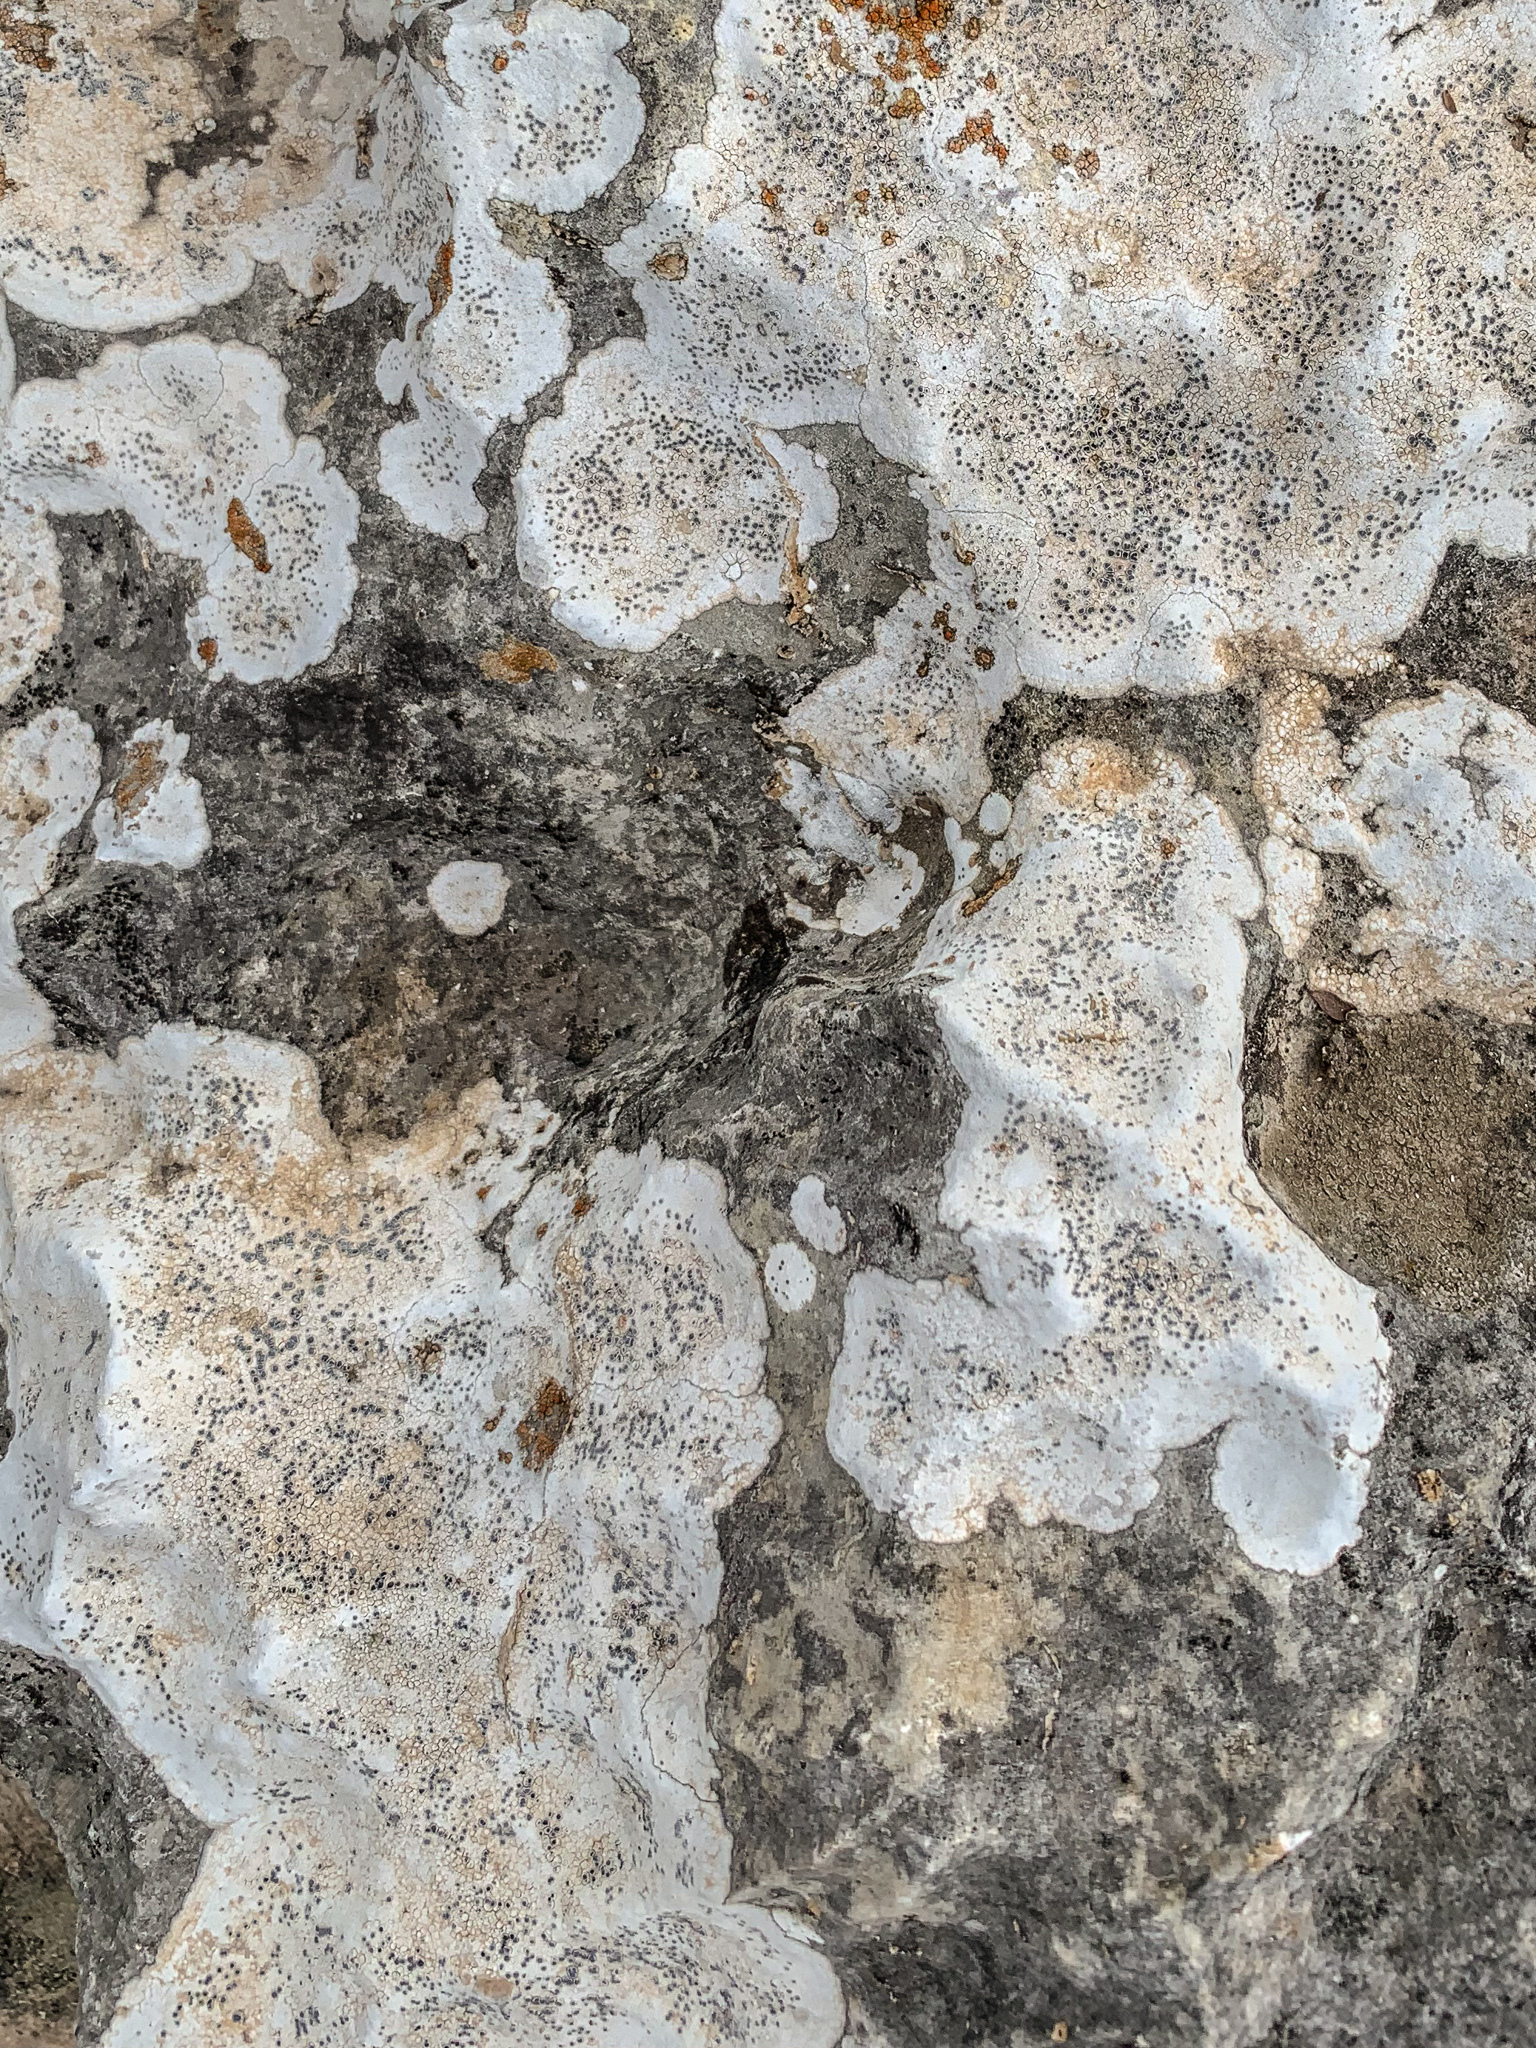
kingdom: Fungi
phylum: Ascomycota
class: Lecanoromycetes
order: Lecanorales
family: Tephromelataceae
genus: Tephromela
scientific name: Tephromela atra
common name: Black shields
